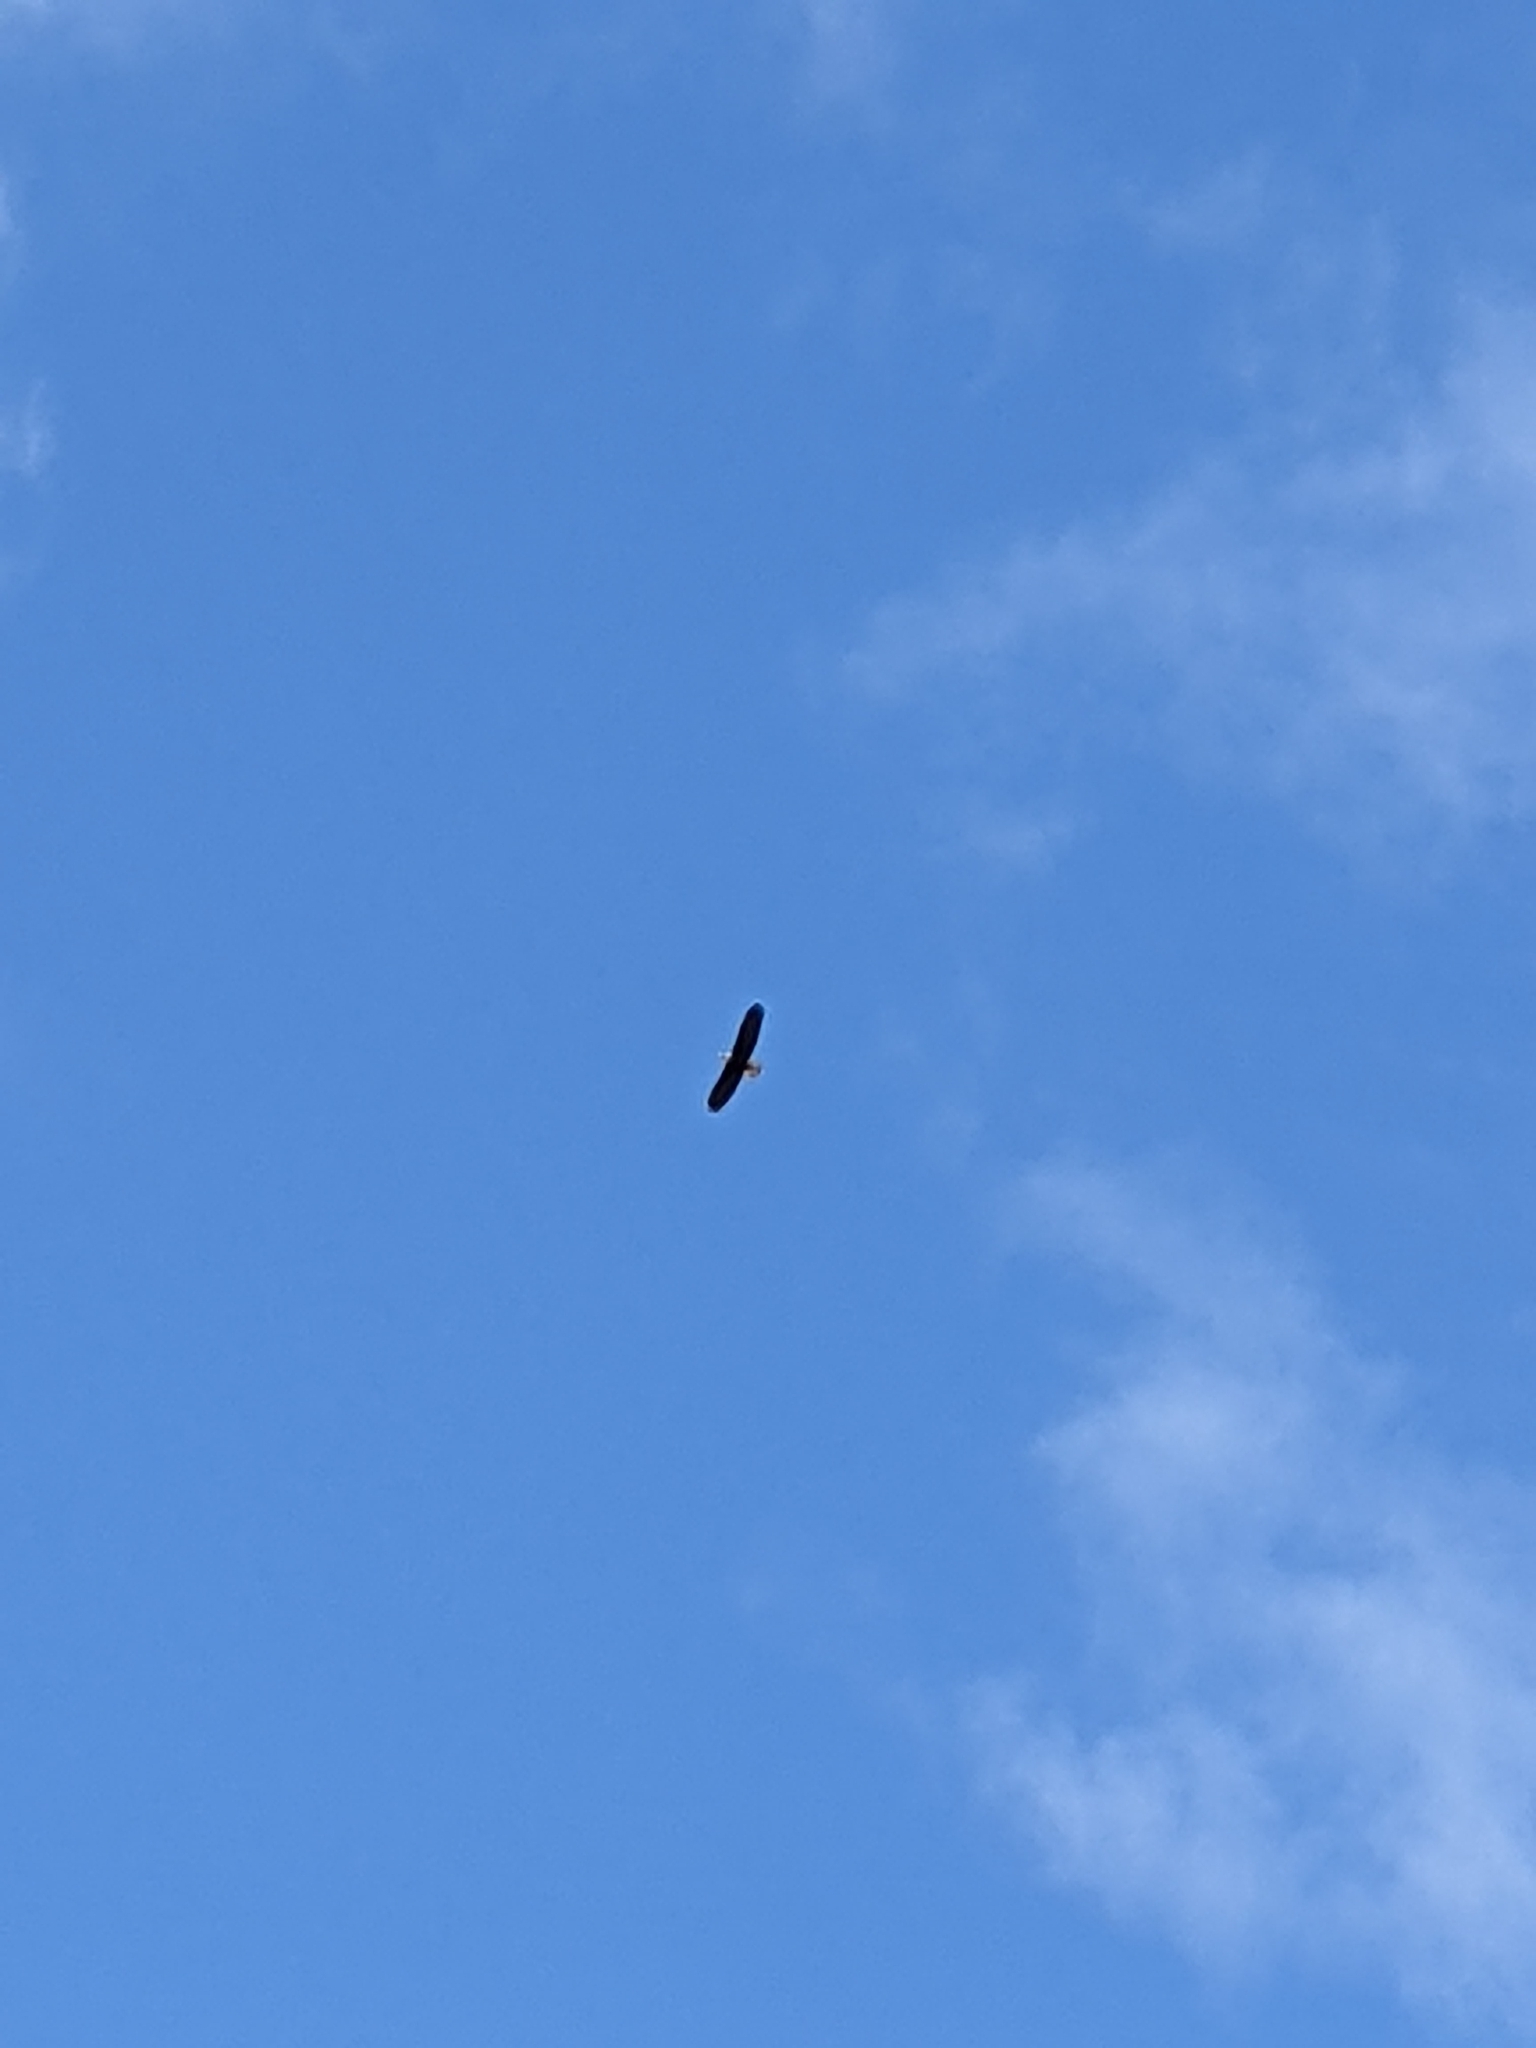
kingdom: Animalia
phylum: Chordata
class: Aves
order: Accipitriformes
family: Accipitridae
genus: Haliaeetus
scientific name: Haliaeetus leucocephalus
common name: Bald eagle
